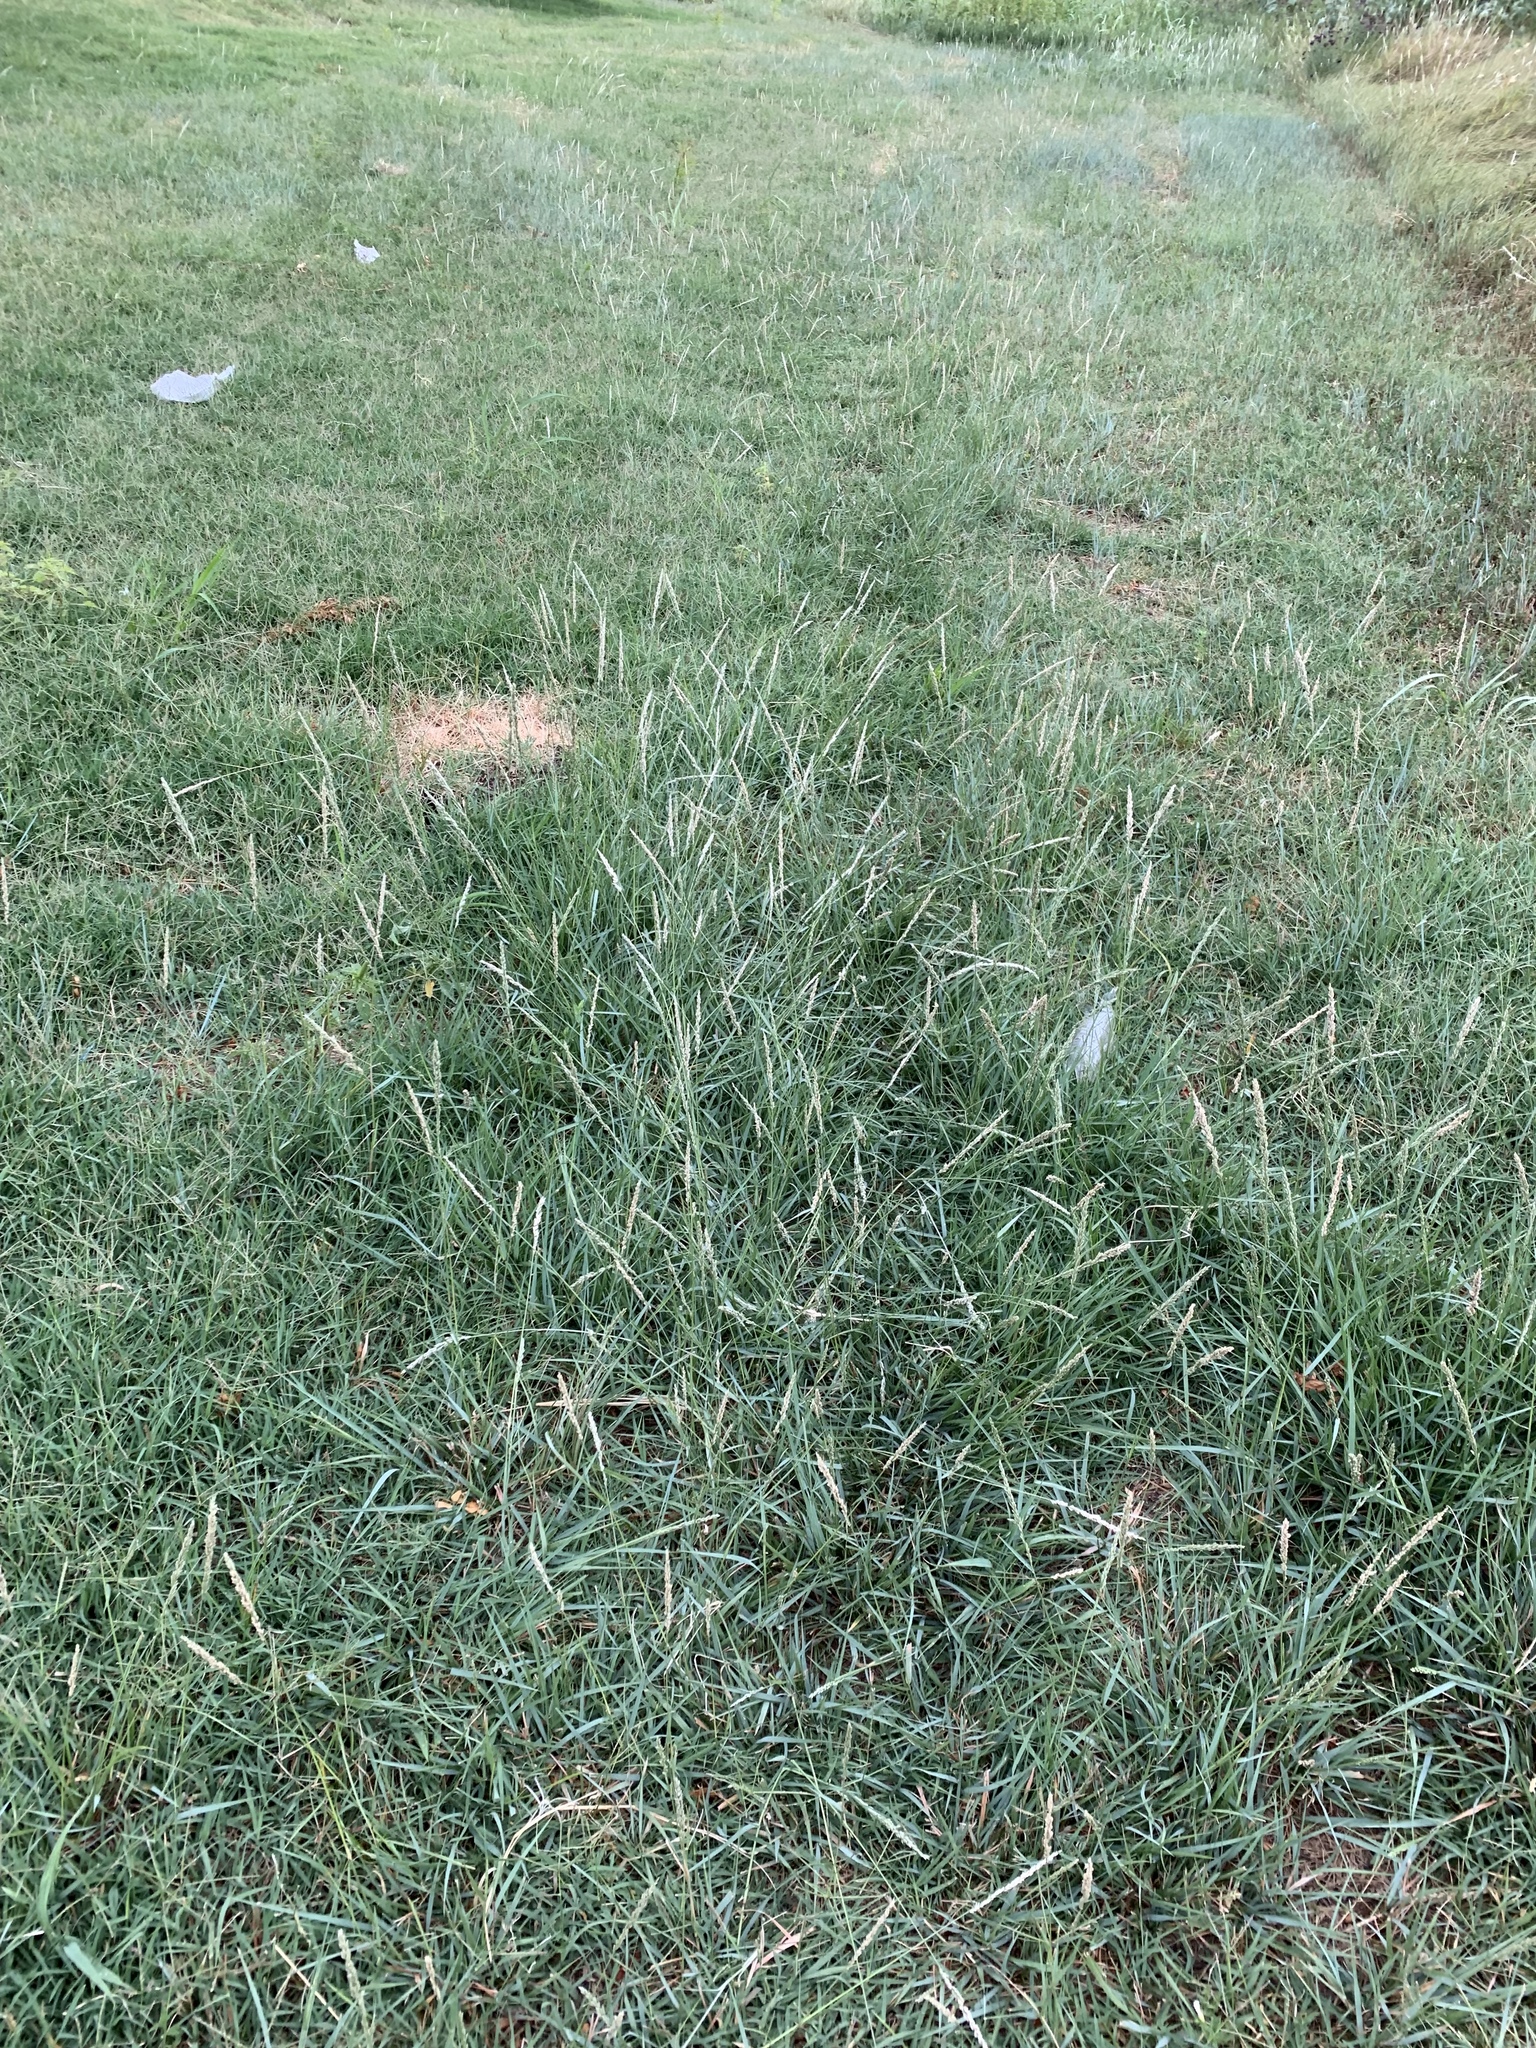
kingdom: Plantae
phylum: Tracheophyta
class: Liliopsida
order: Poales
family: Poaceae
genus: Tridens
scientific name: Tridens albescens
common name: White tridens
